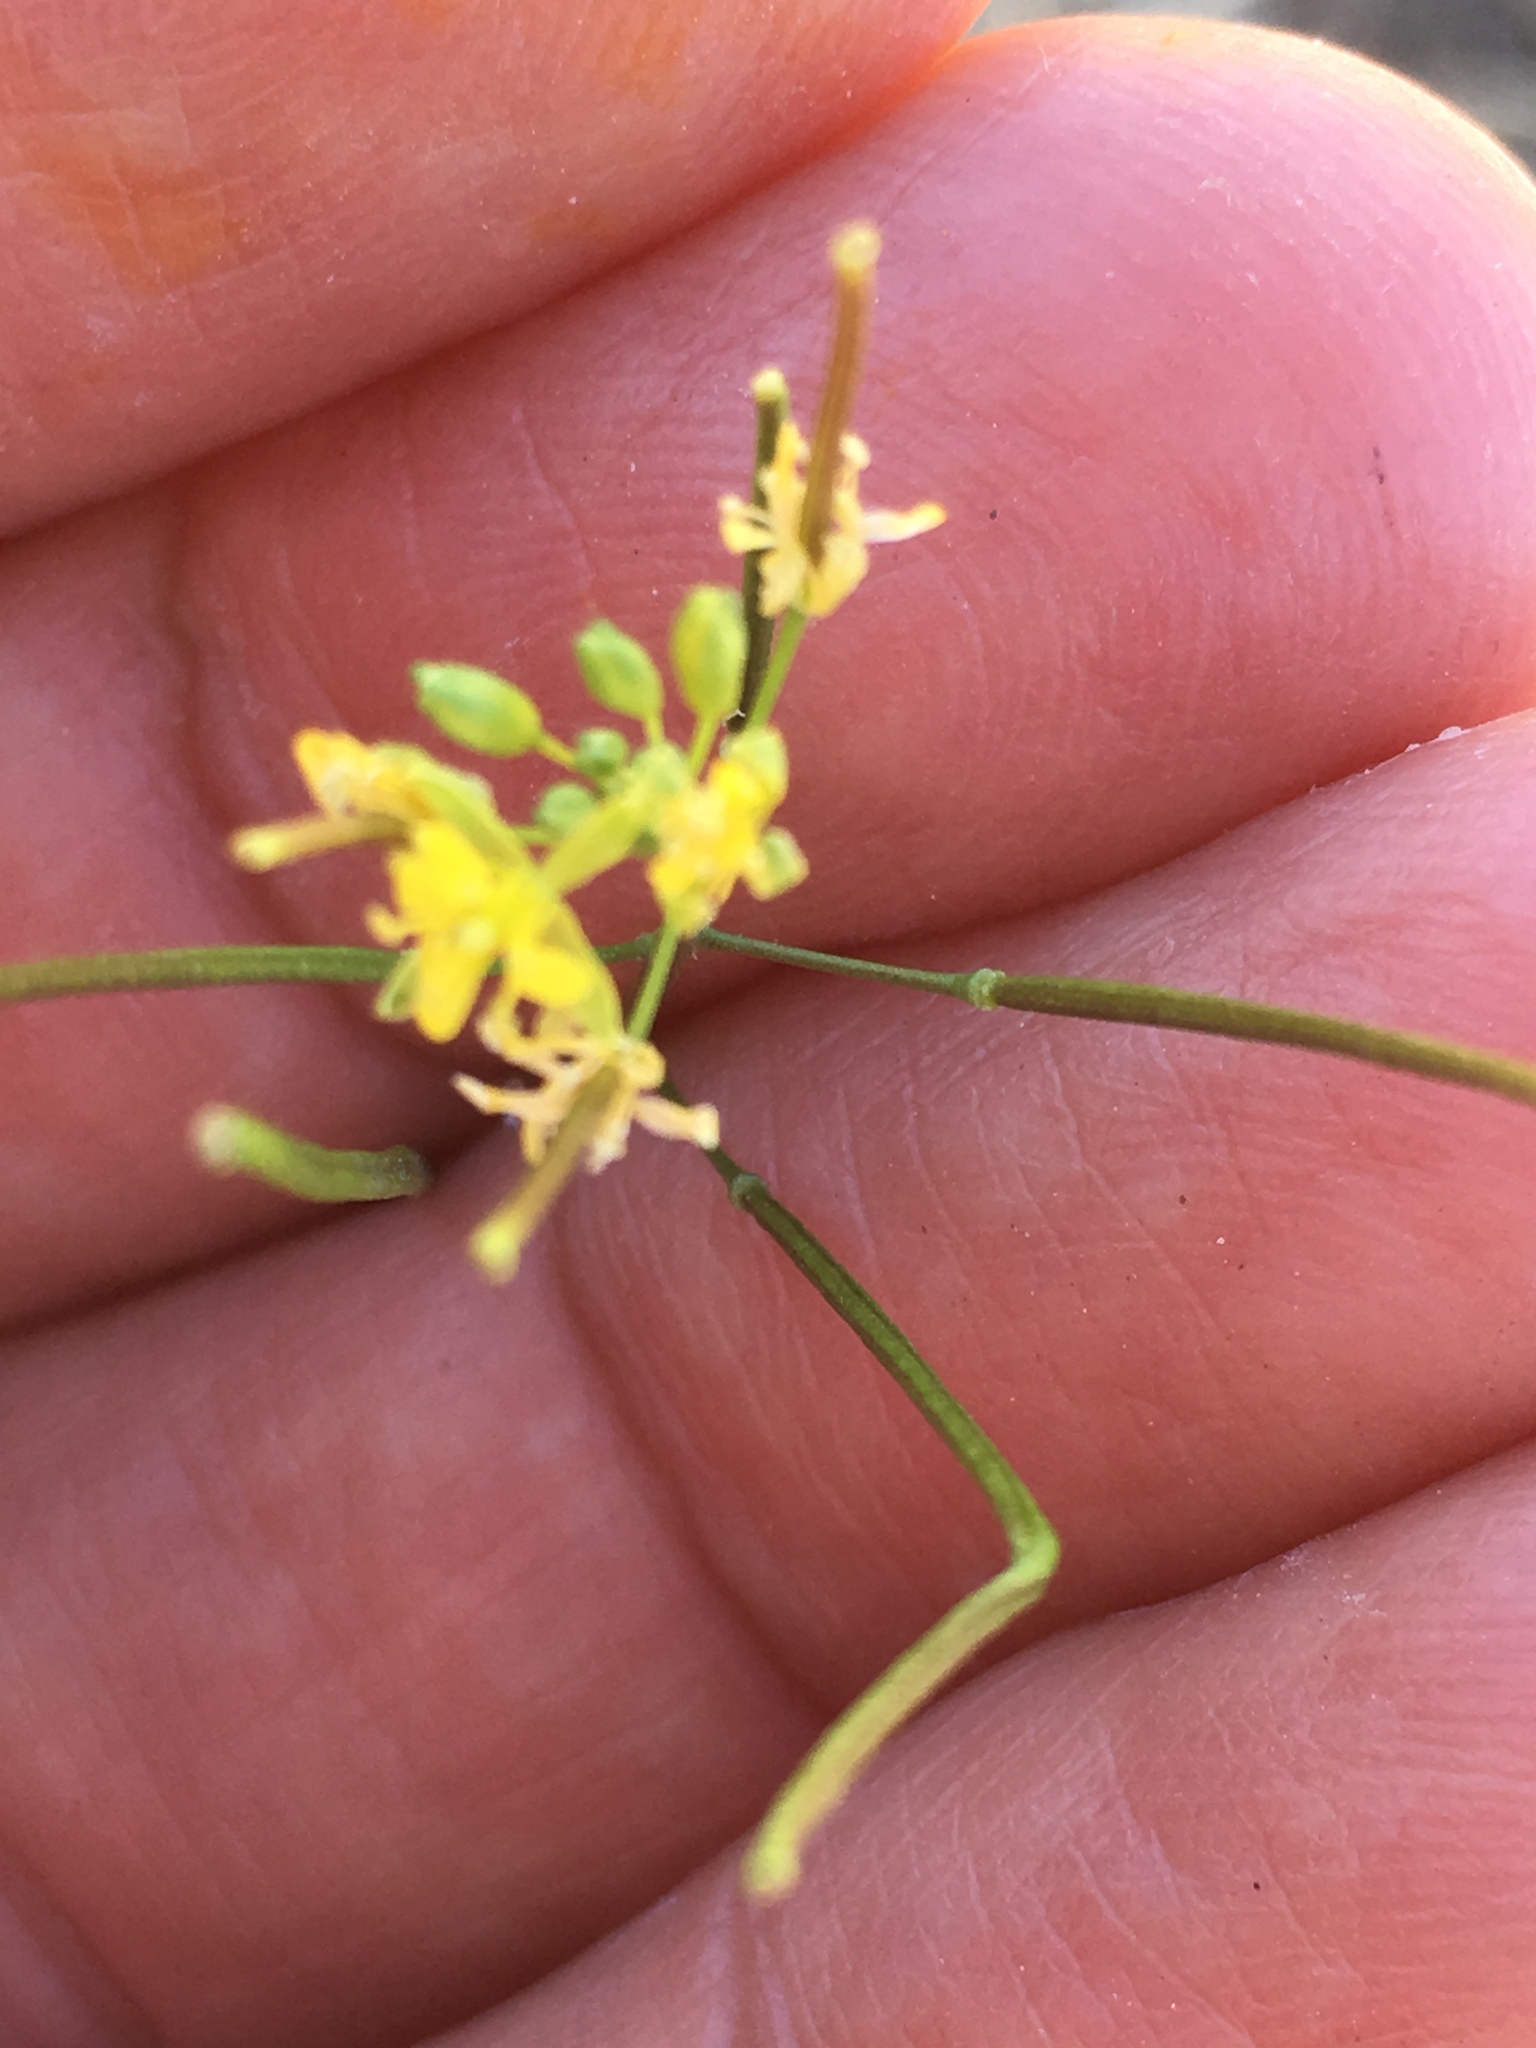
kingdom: Plantae
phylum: Tracheophyta
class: Magnoliopsida
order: Brassicales
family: Brassicaceae
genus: Sisymbrium
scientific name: Sisymbrium irio
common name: London rocket
